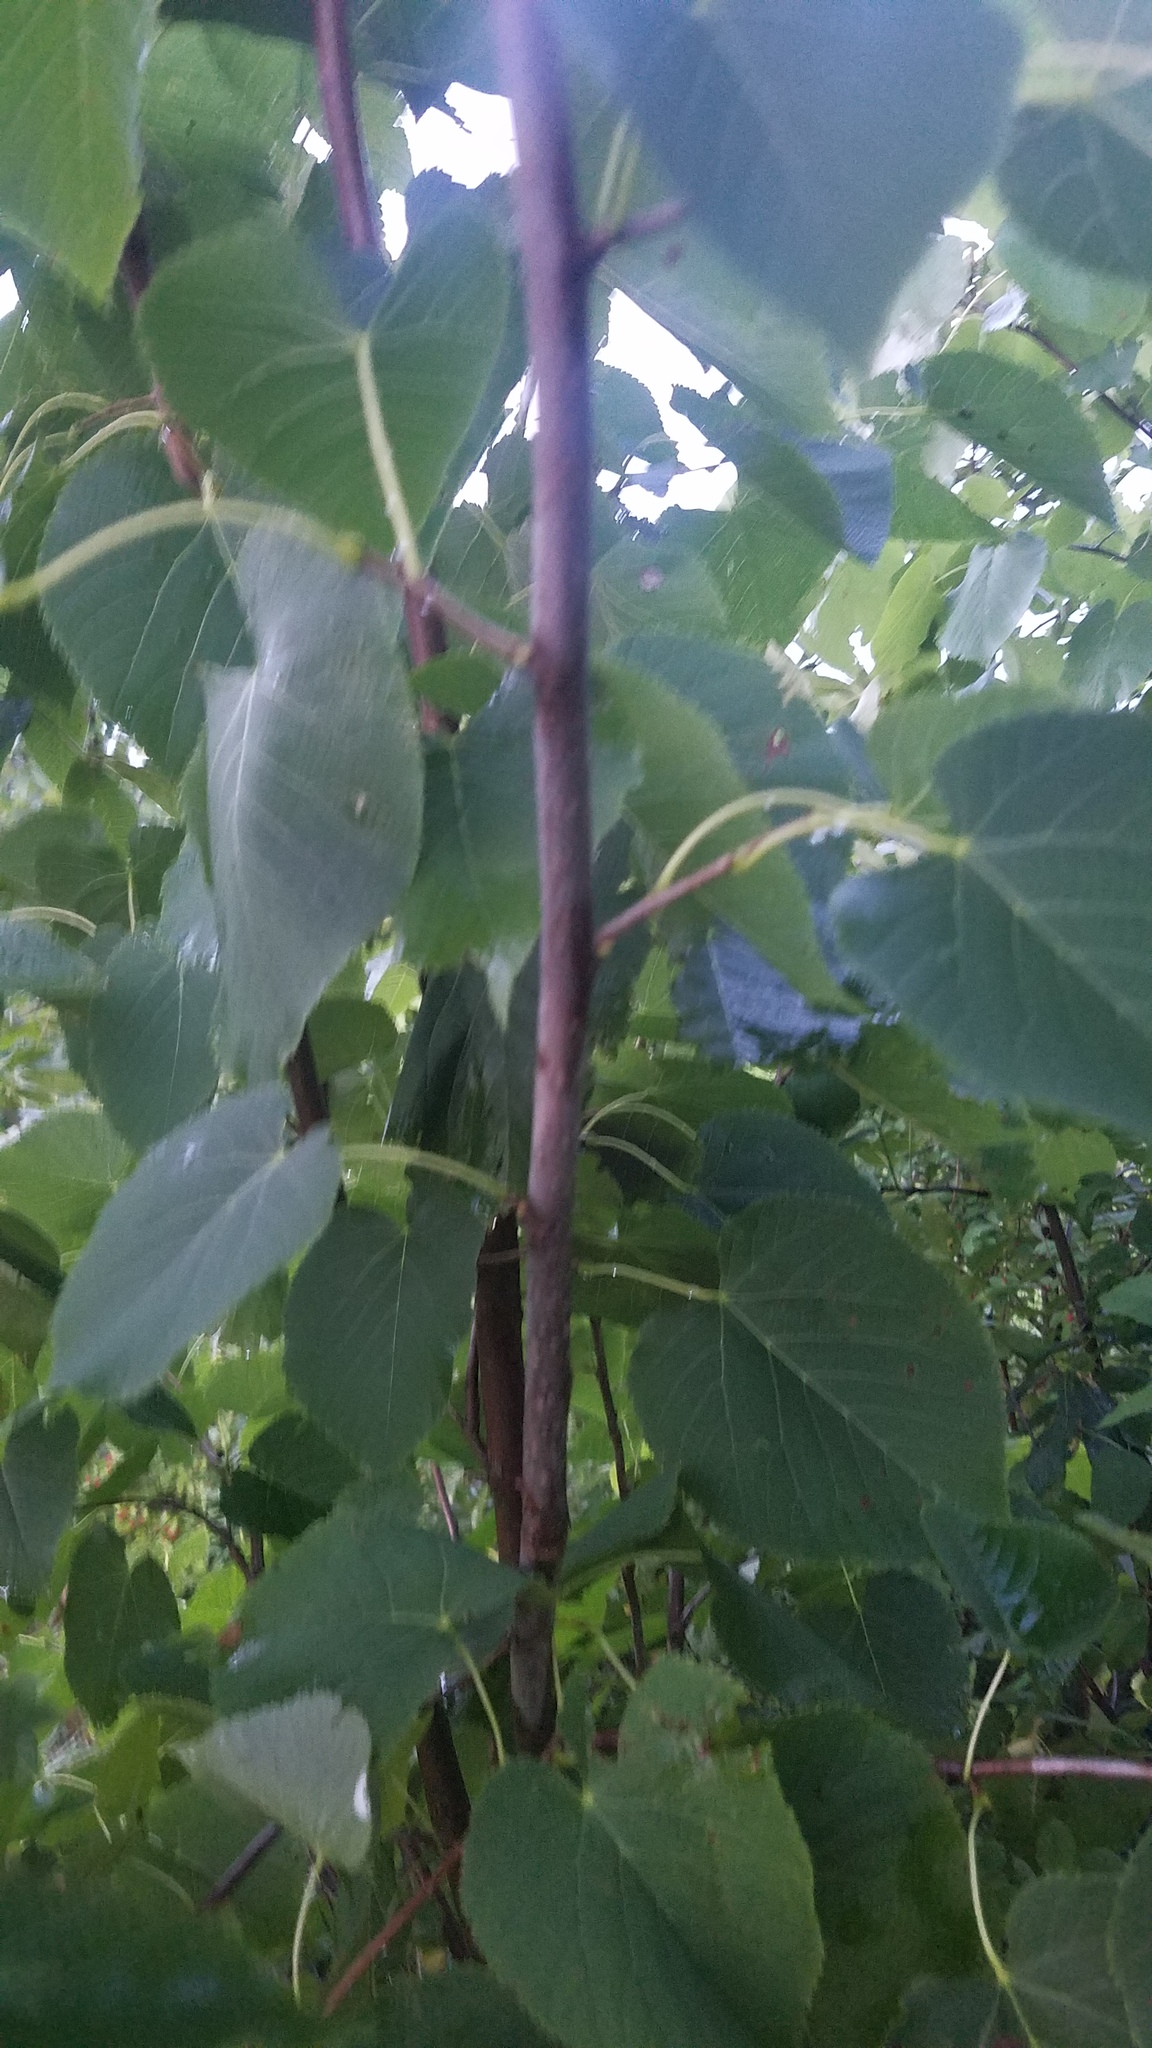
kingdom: Plantae
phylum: Tracheophyta
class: Magnoliopsida
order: Malvales
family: Malvaceae
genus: Tilia
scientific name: Tilia americana
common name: Basswood
